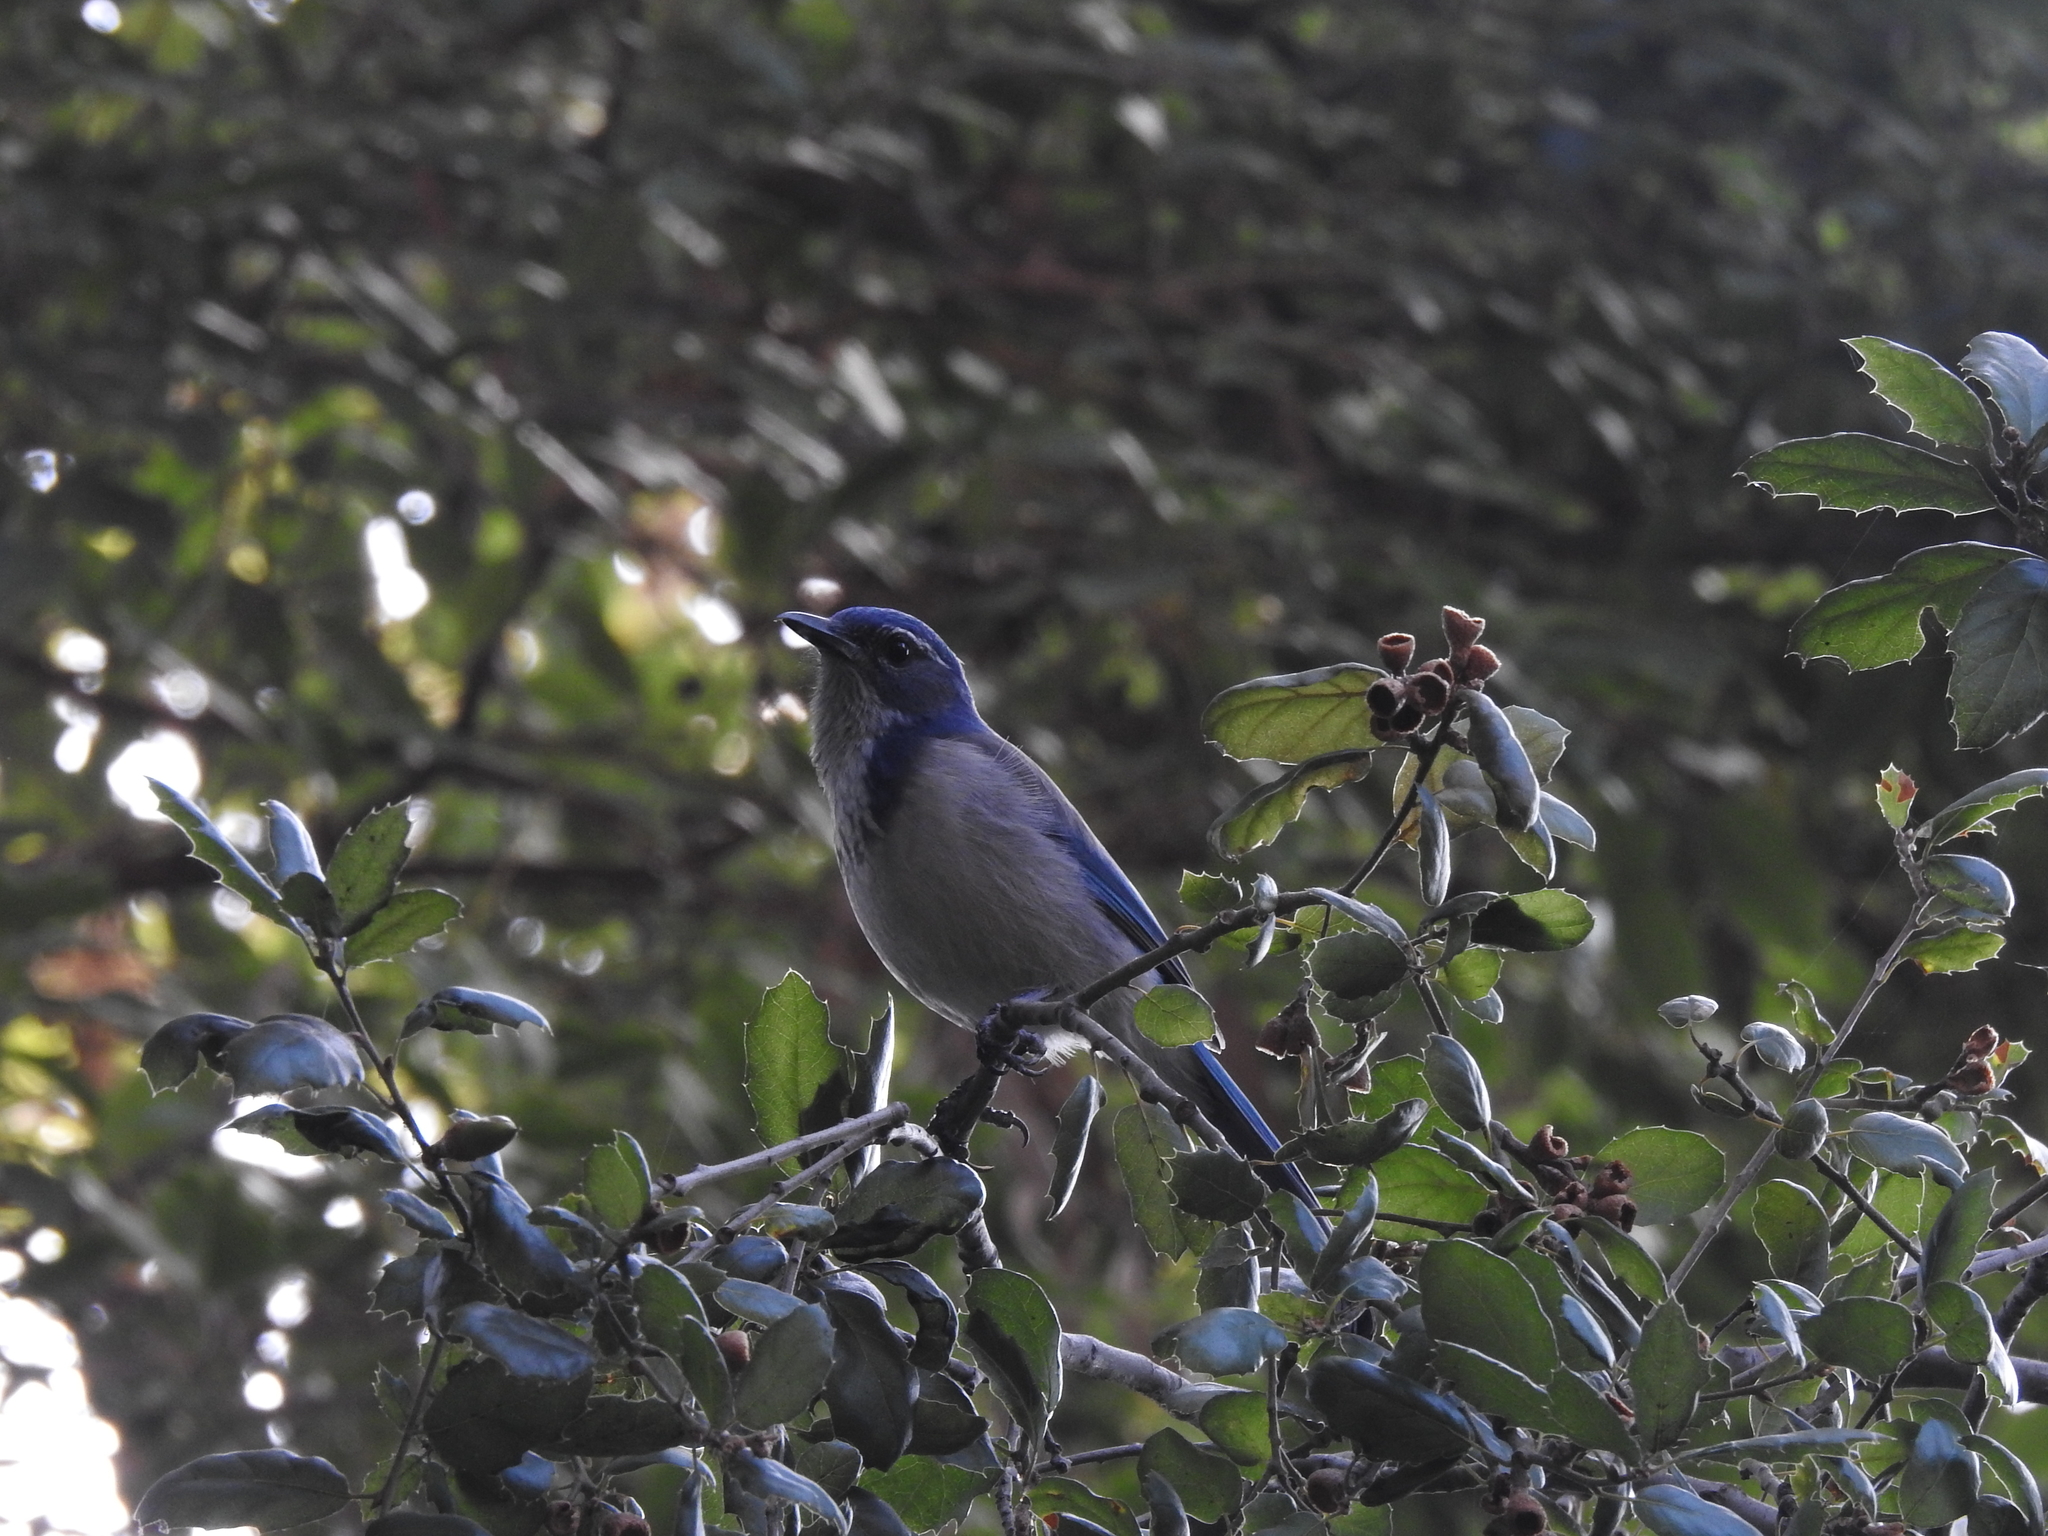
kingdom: Animalia
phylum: Chordata
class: Aves
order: Passeriformes
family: Corvidae
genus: Aphelocoma
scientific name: Aphelocoma californica
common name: California scrub-jay
